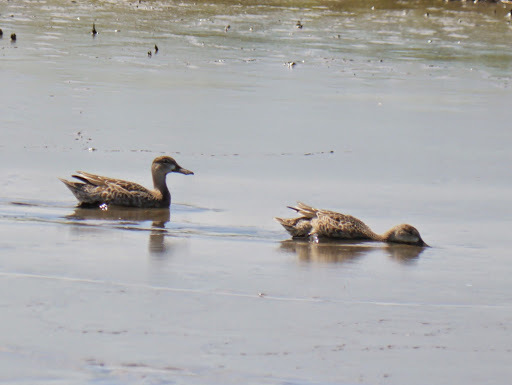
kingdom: Animalia
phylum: Chordata
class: Aves
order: Anseriformes
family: Anatidae
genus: Spatula
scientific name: Spatula discors
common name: Blue-winged teal
